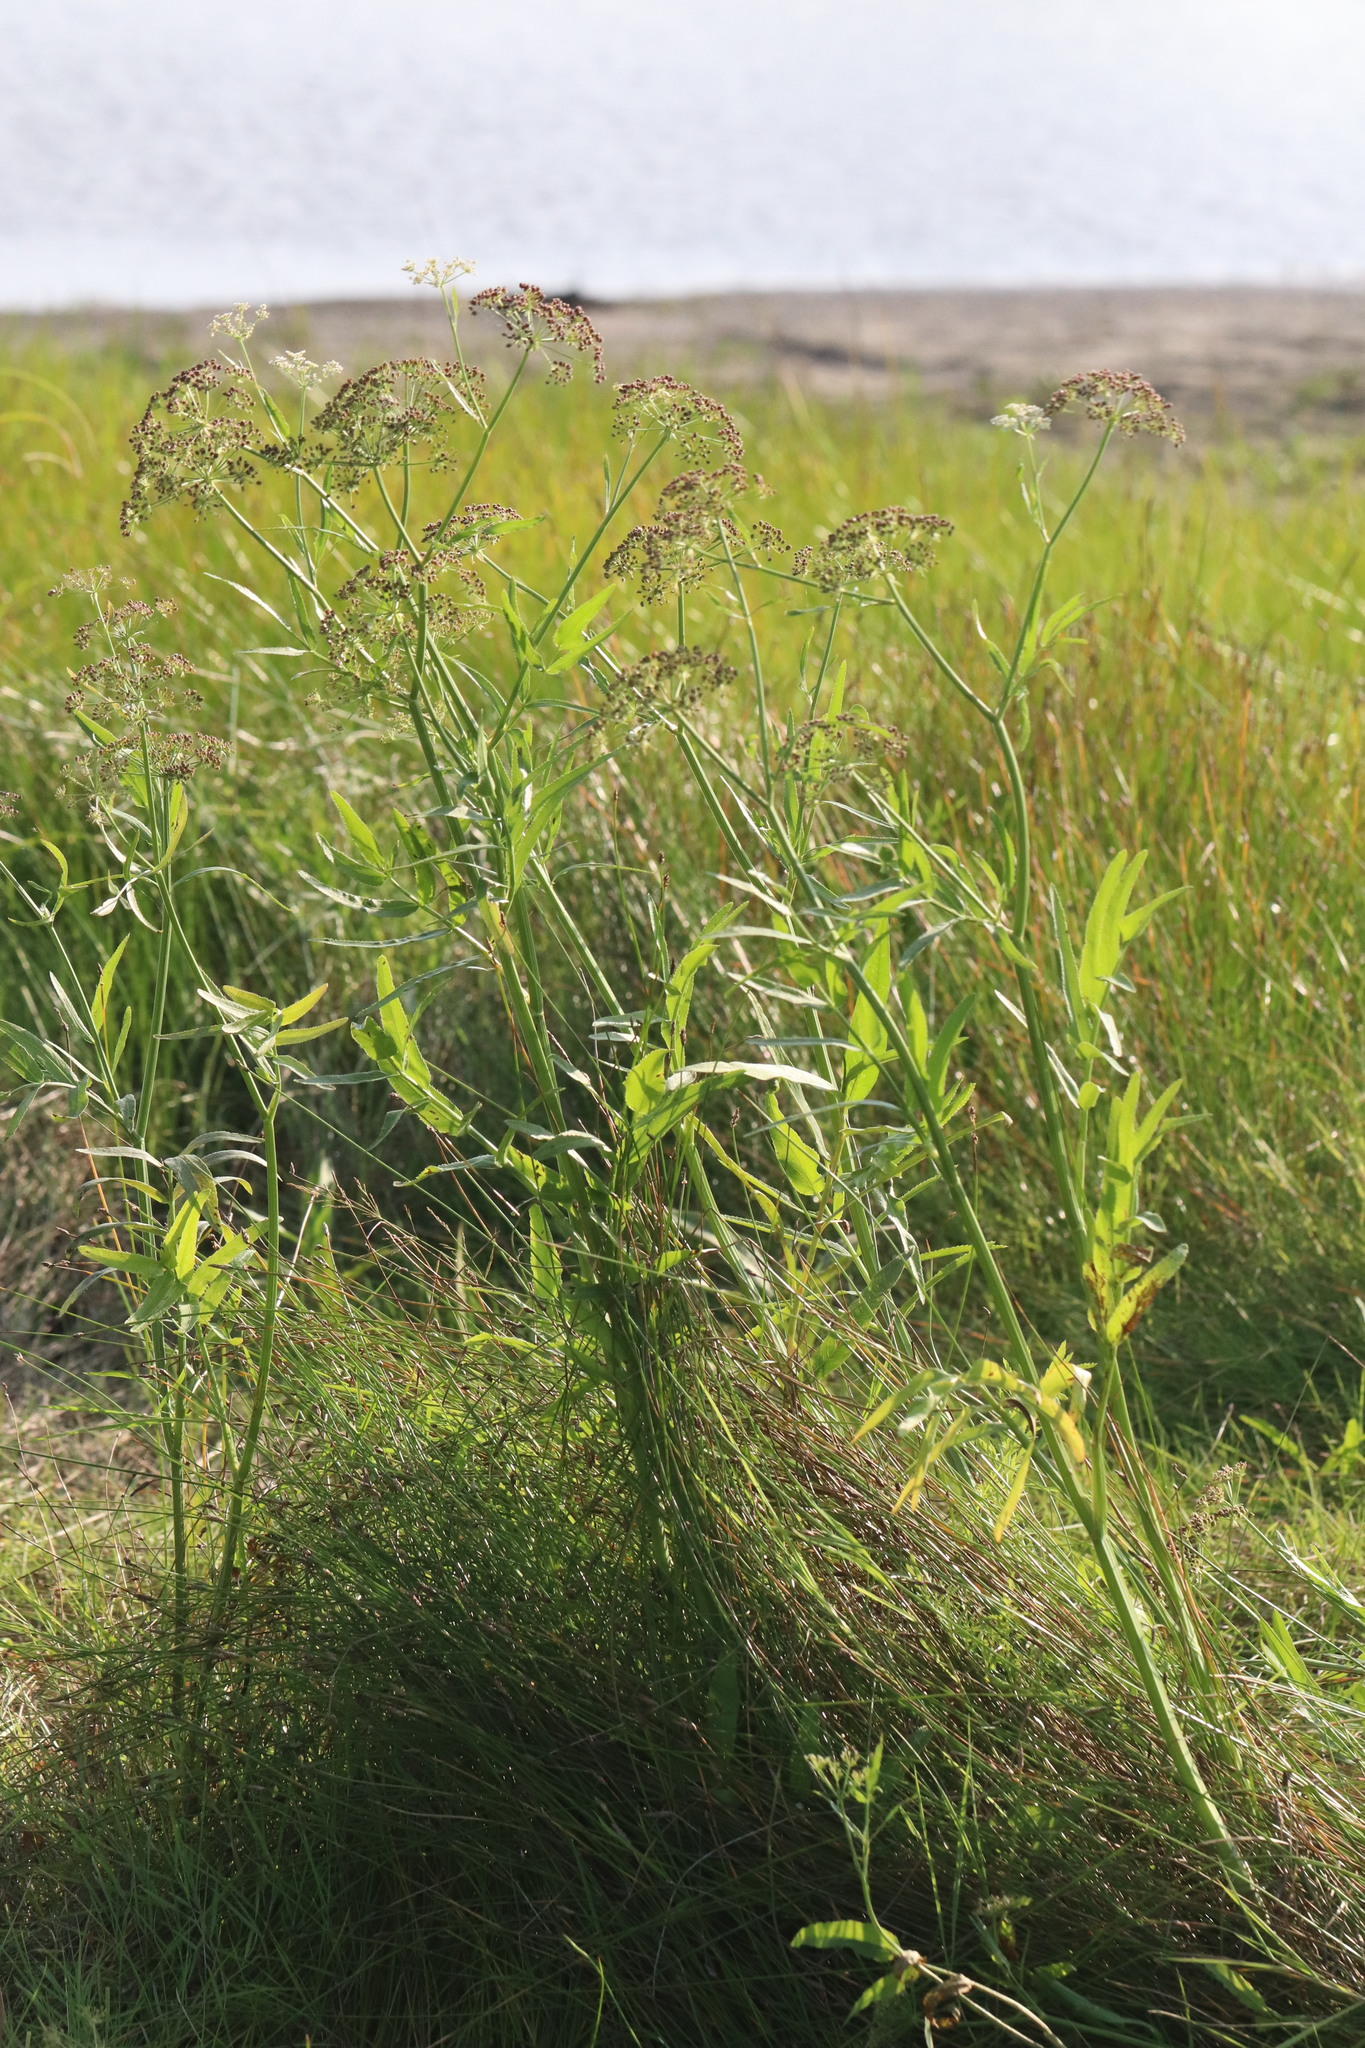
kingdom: Plantae
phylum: Tracheophyta
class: Magnoliopsida
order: Apiales
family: Apiaceae
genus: Sium
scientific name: Sium latifolium
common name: Greater water-parsnip
